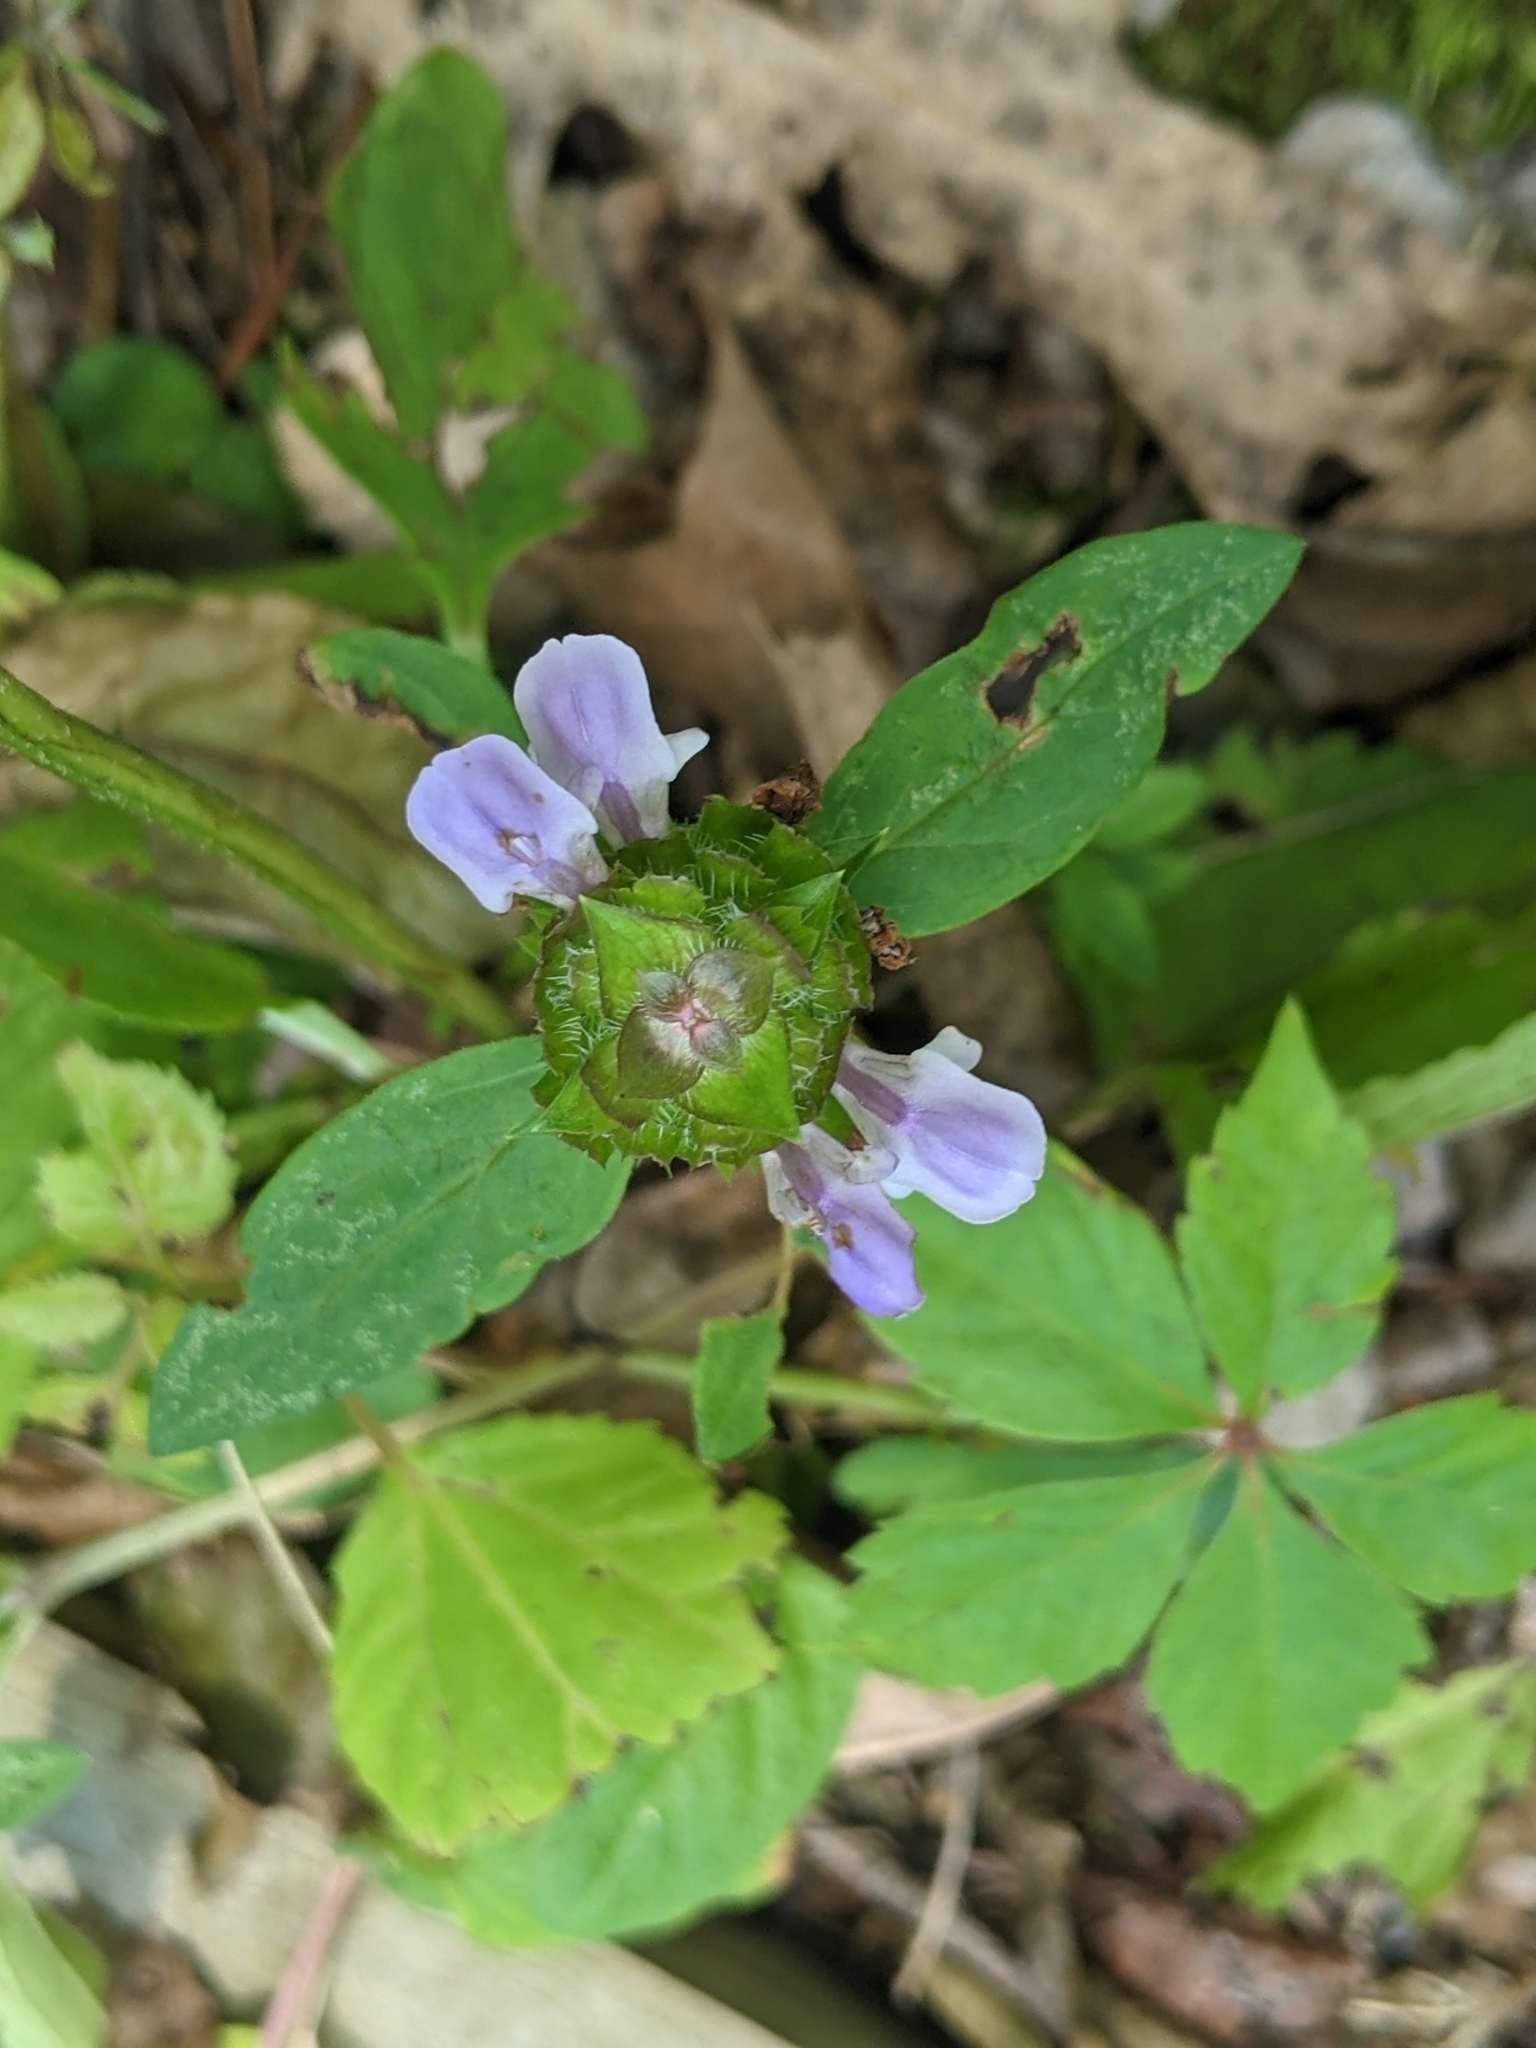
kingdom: Plantae
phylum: Tracheophyta
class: Magnoliopsida
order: Lamiales
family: Lamiaceae
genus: Prunella
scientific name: Prunella vulgaris
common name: Heal-all
